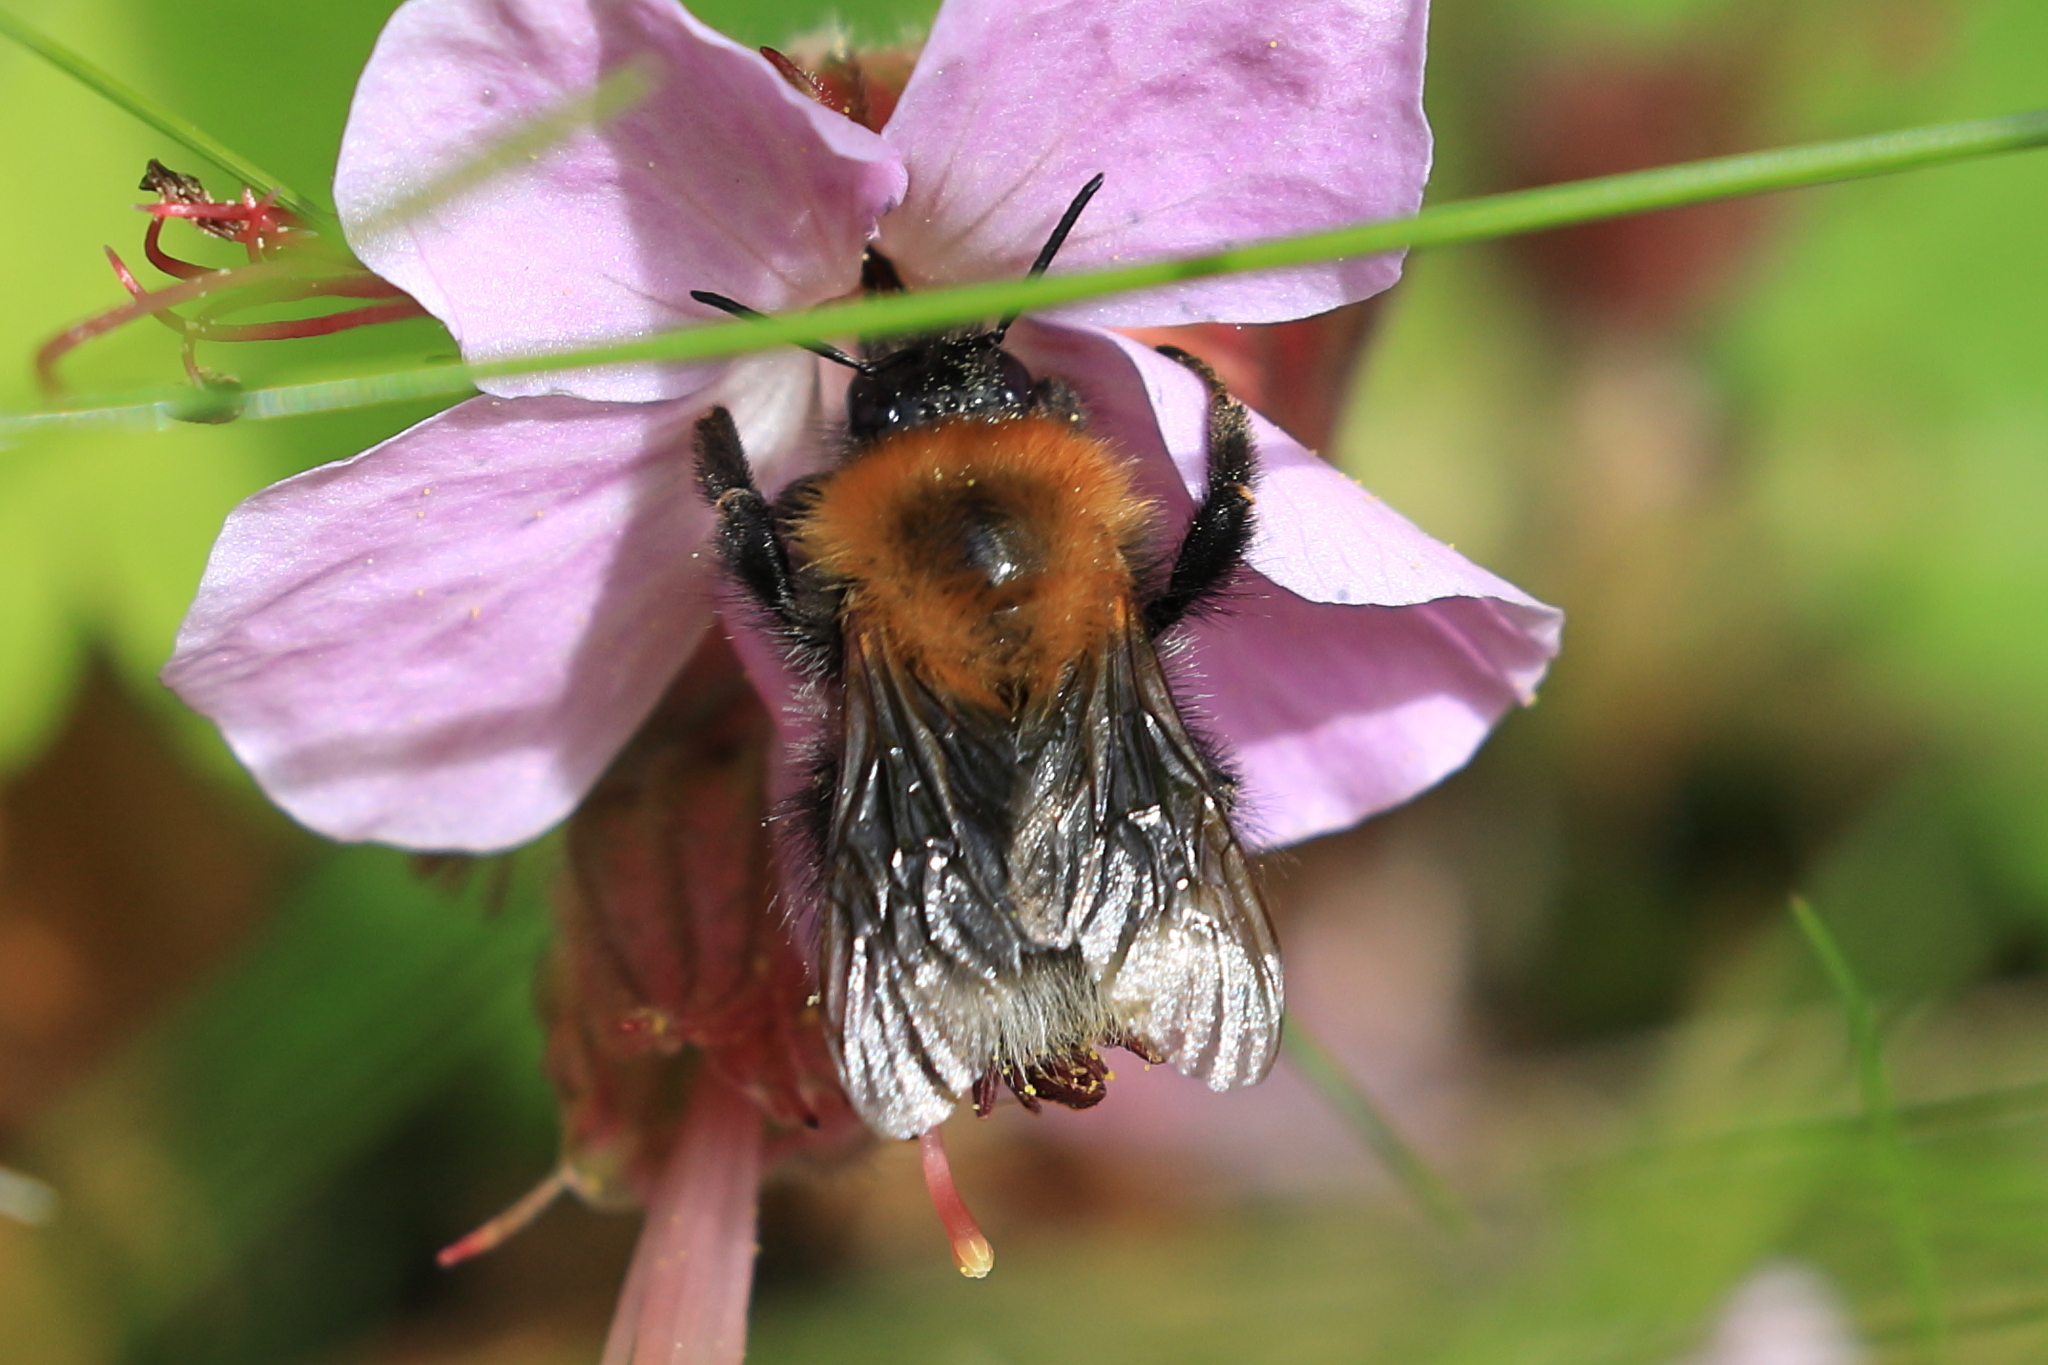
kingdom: Animalia
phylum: Arthropoda
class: Insecta
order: Hymenoptera
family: Apidae
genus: Bombus
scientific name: Bombus hypnorum
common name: New garden bumblebee
